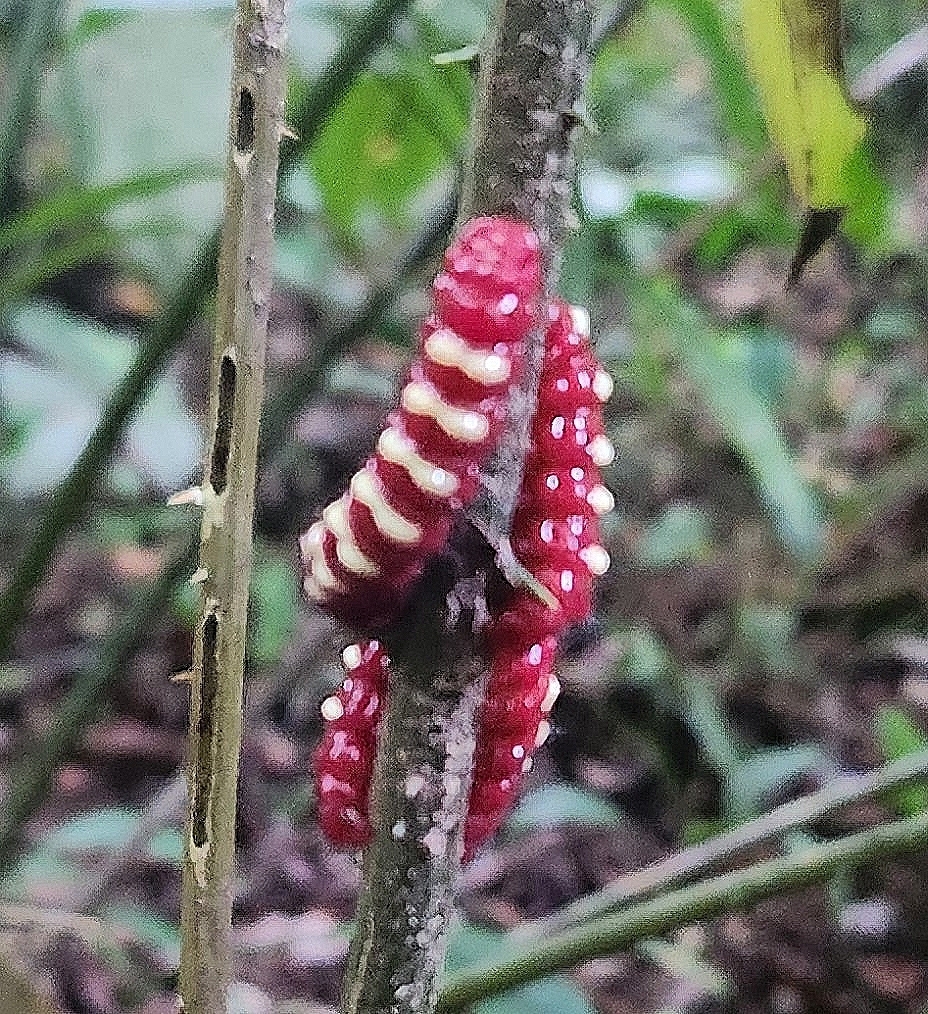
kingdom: Animalia
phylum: Arthropoda
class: Insecta
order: Lepidoptera
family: Lycaenidae
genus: Eumaeus
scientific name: Eumaeus godartii
